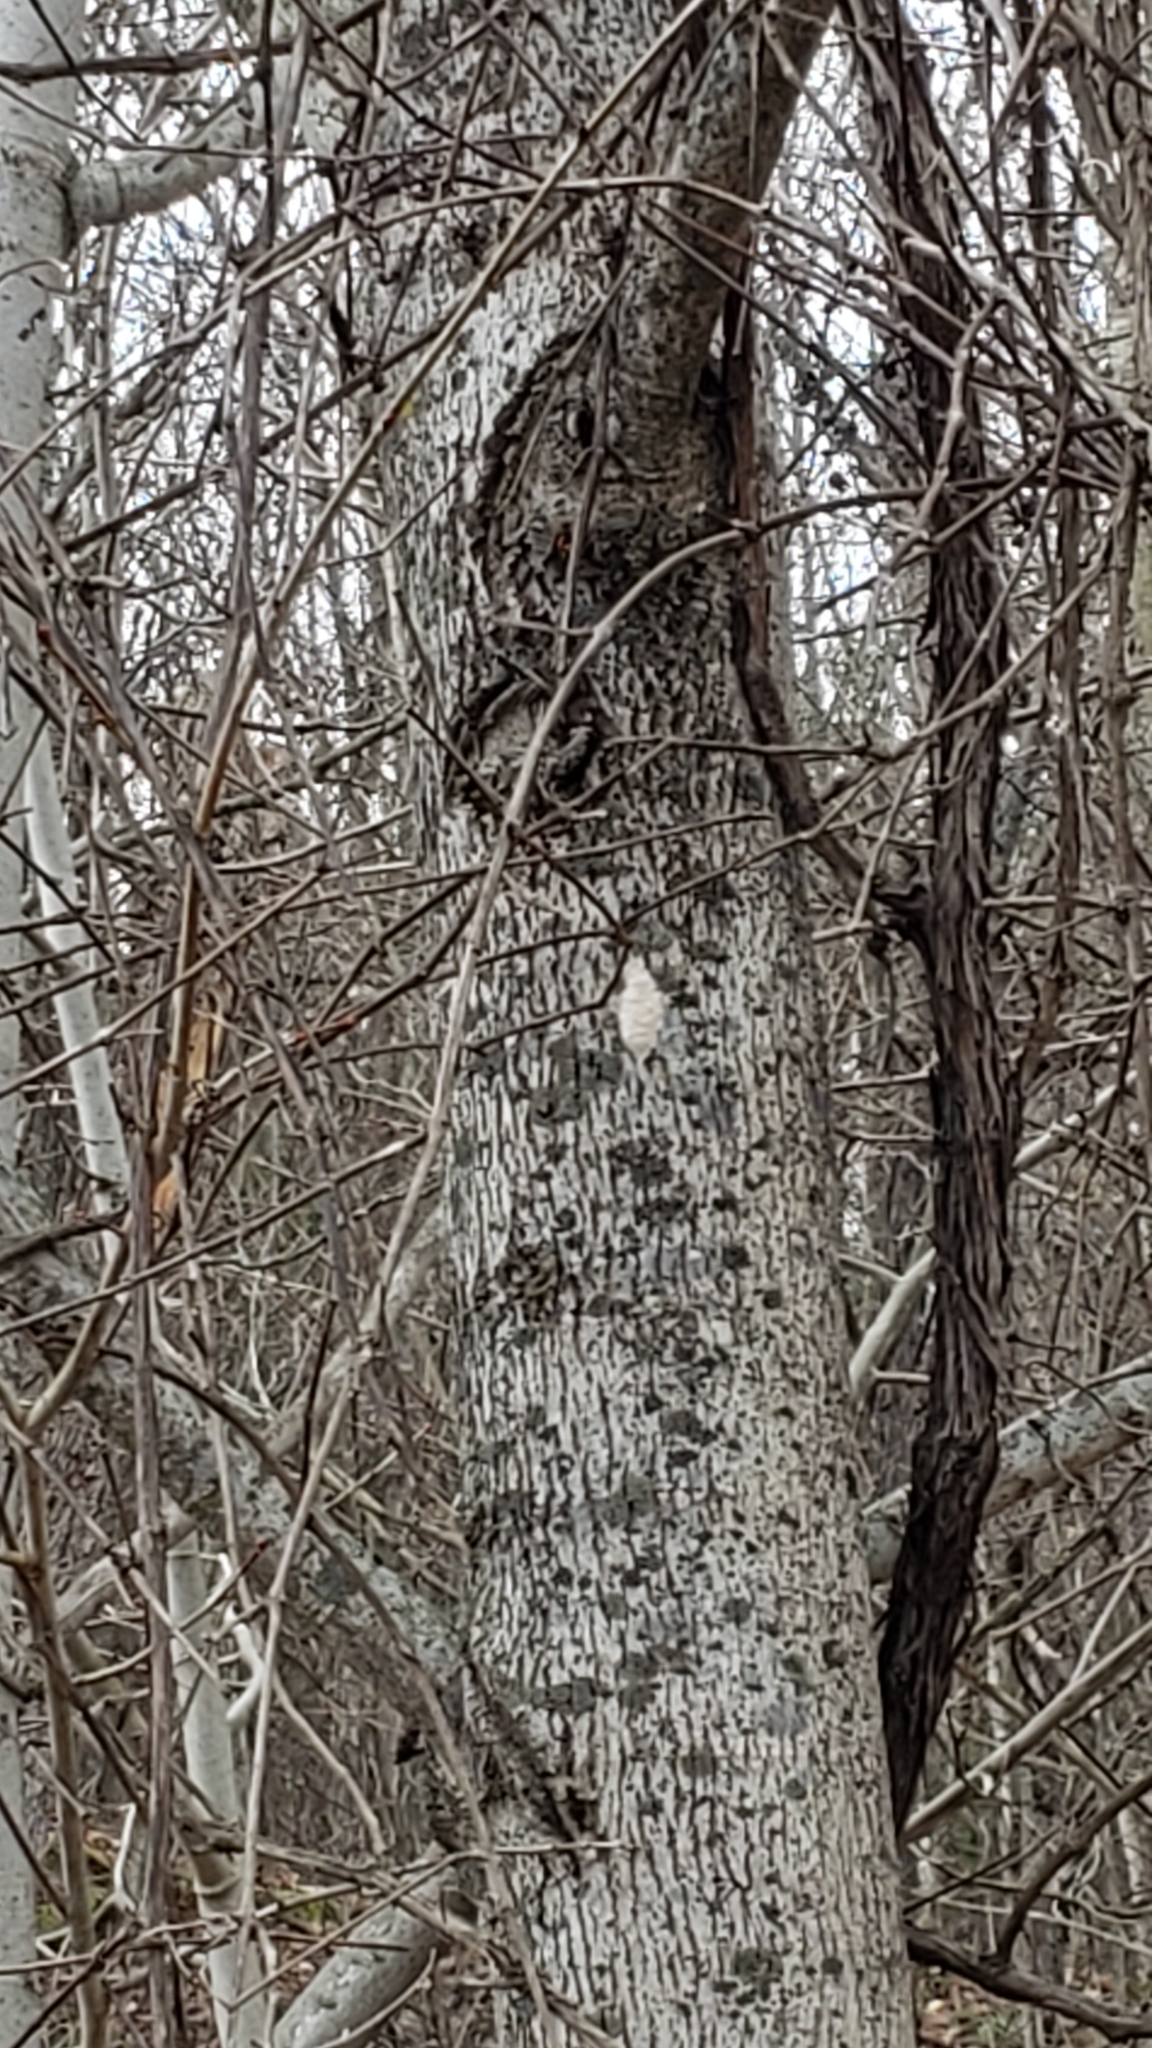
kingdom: Animalia
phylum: Arthropoda
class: Insecta
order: Lepidoptera
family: Erebidae
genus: Lymantria
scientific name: Lymantria dispar
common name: Gypsy moth
